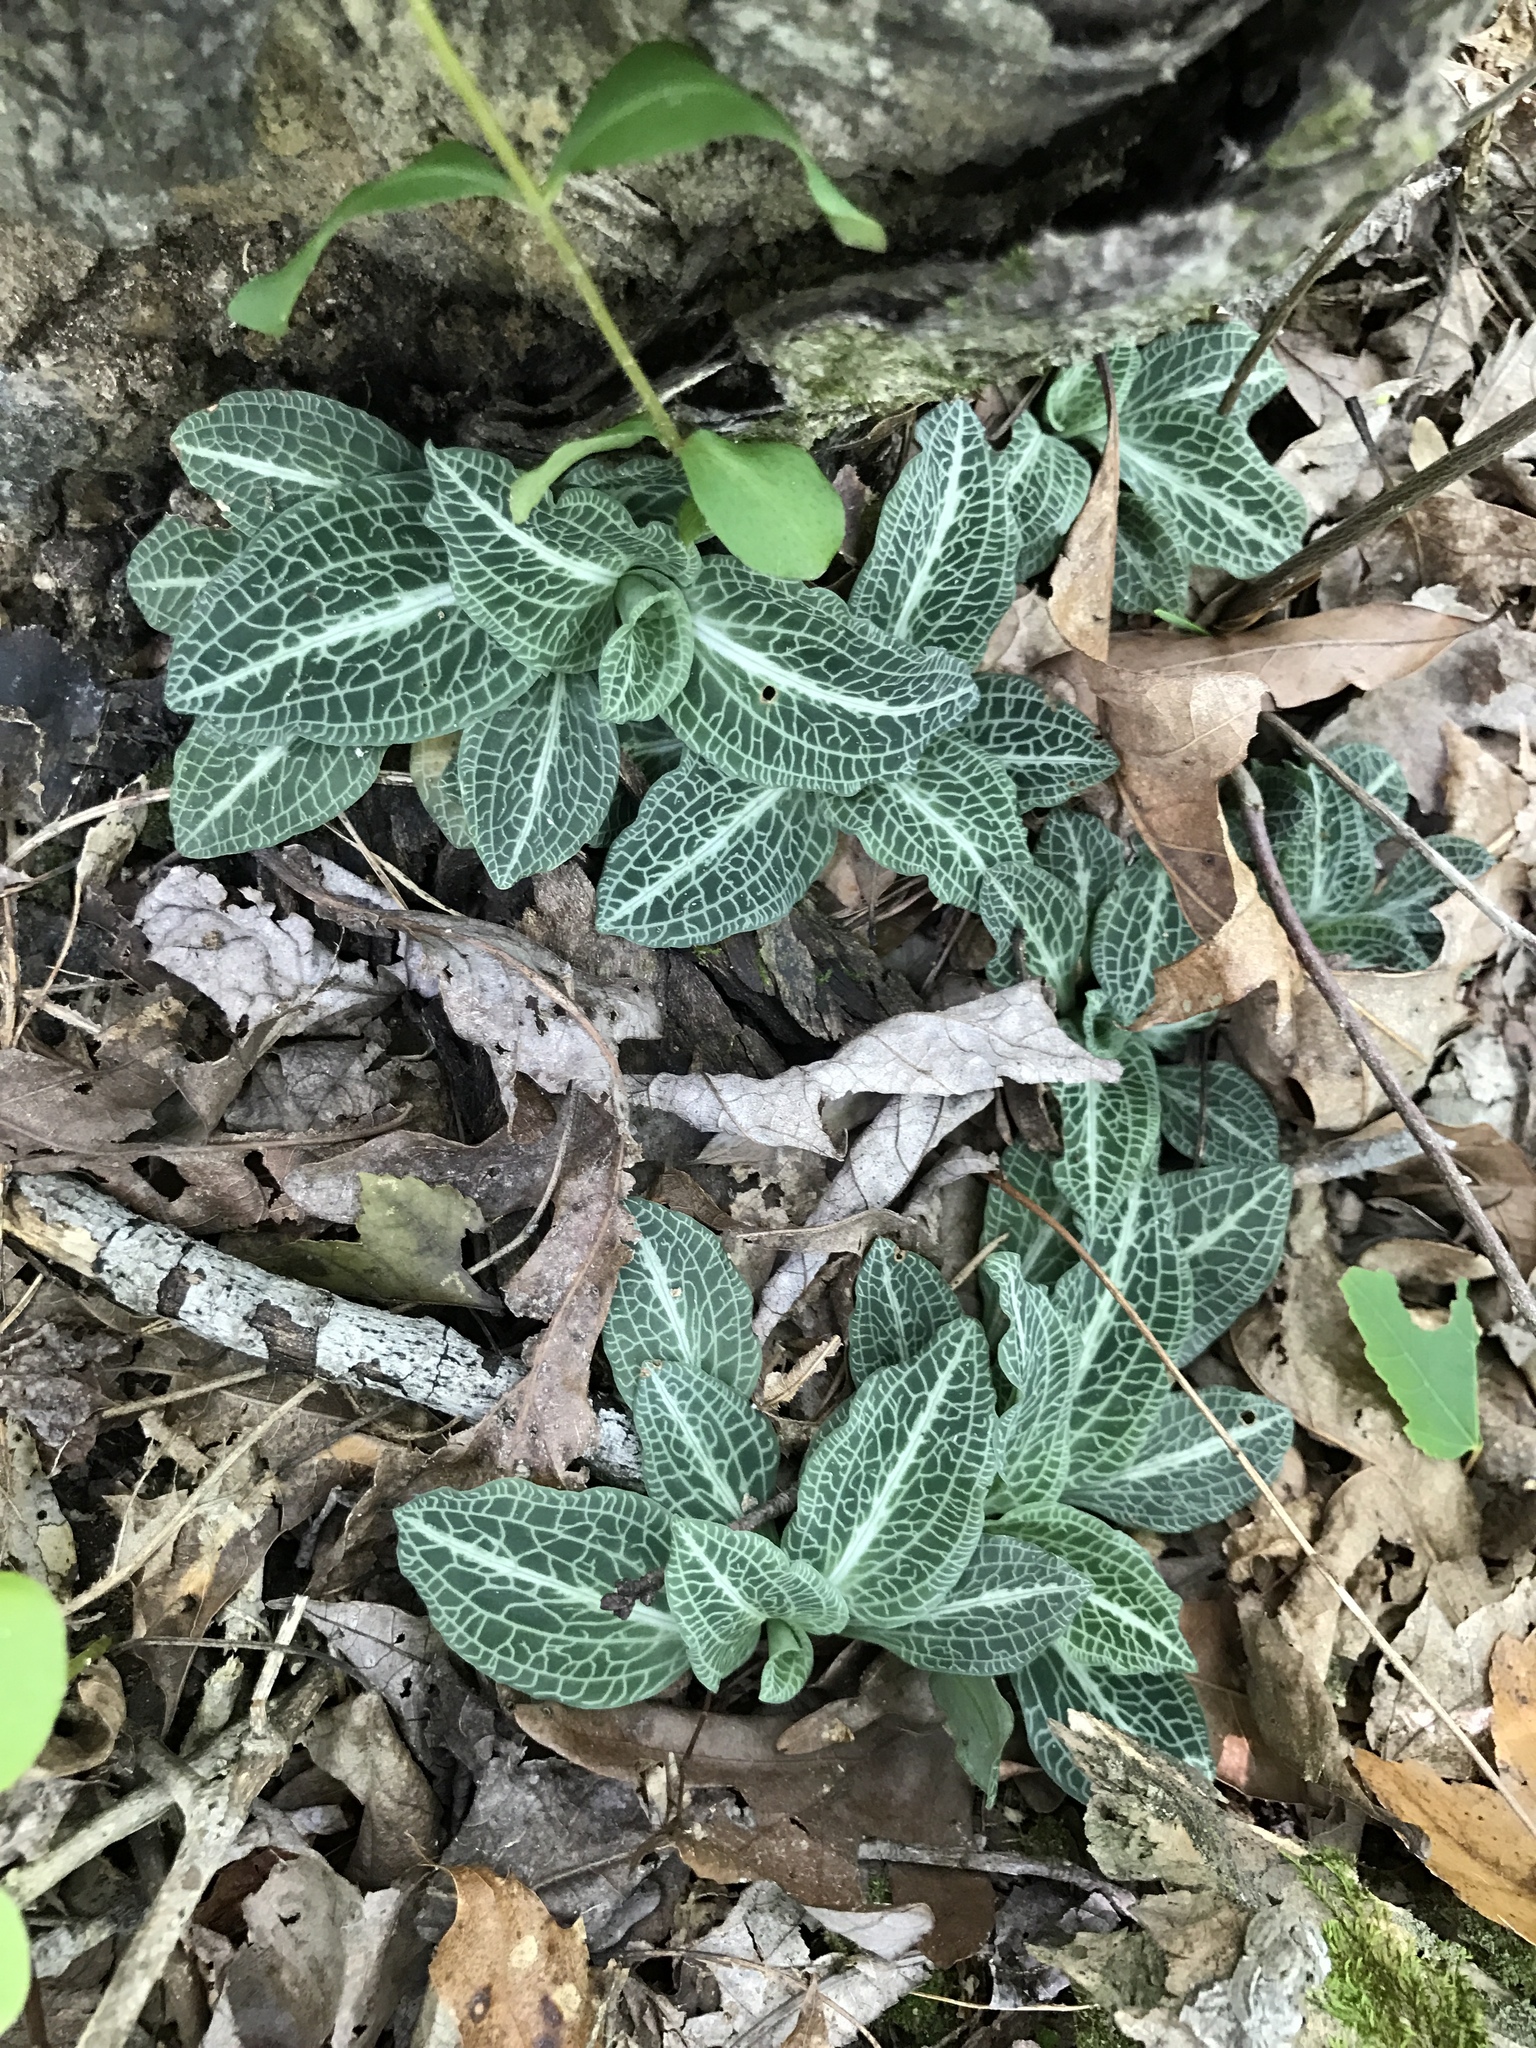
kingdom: Plantae
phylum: Tracheophyta
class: Liliopsida
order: Asparagales
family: Orchidaceae
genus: Goodyera
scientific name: Goodyera pubescens
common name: Downy rattlesnake-plantain
